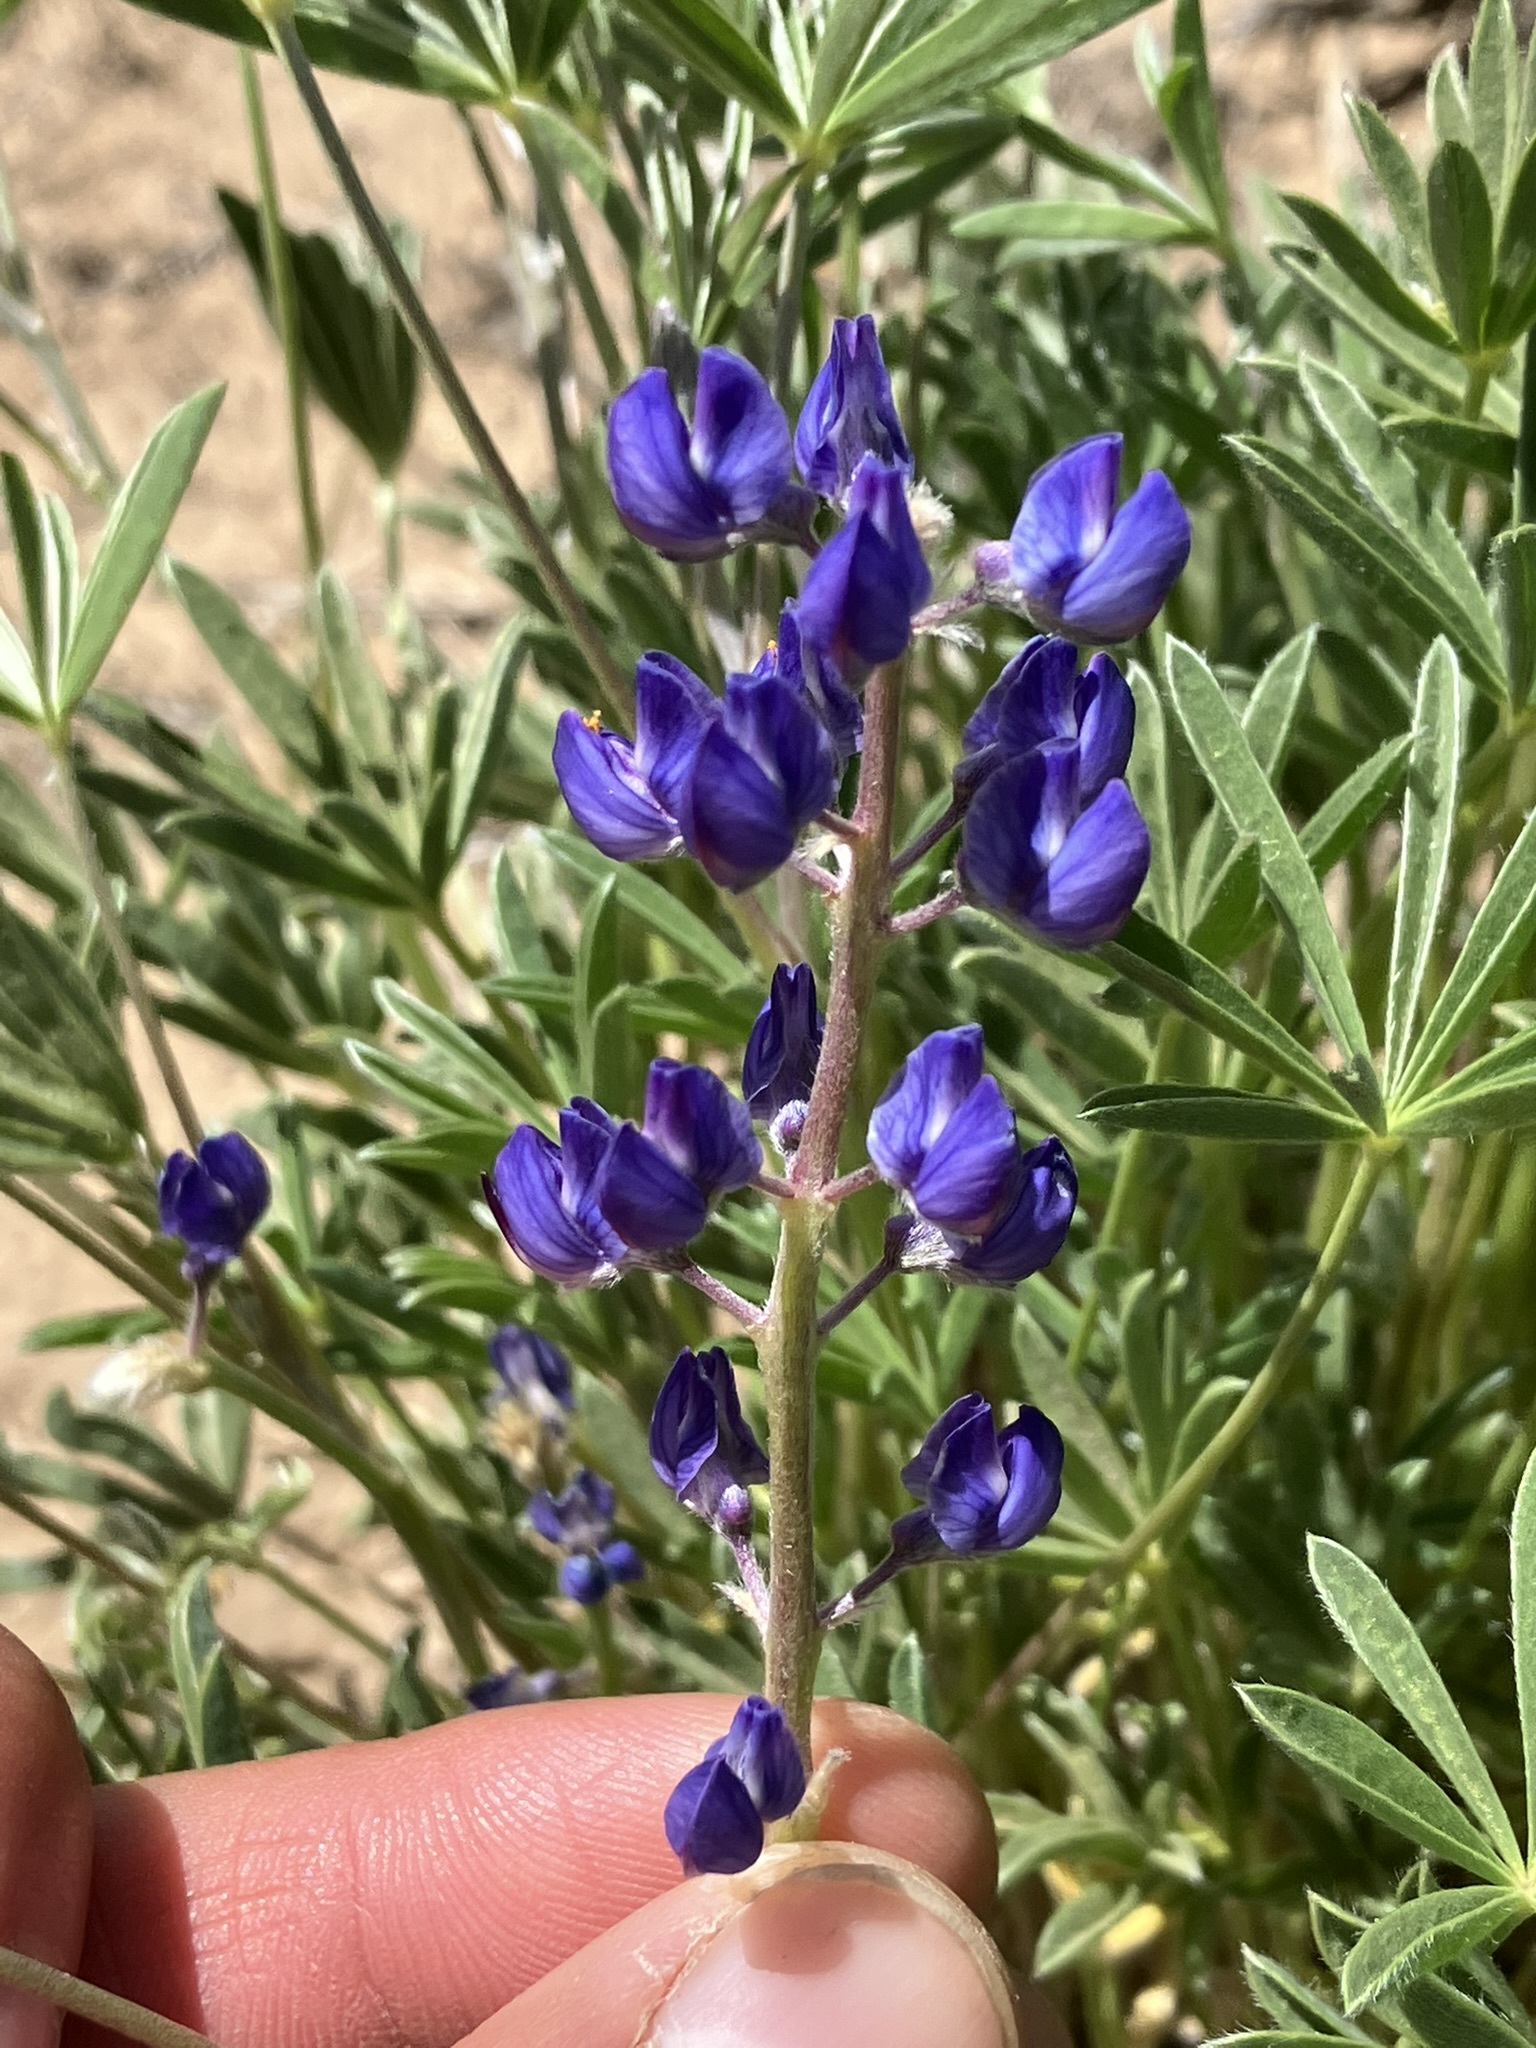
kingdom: Plantae
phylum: Tracheophyta
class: Magnoliopsida
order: Fabales
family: Fabaceae
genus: Lupinus
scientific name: Lupinus argenteus
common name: Silvery lupine
